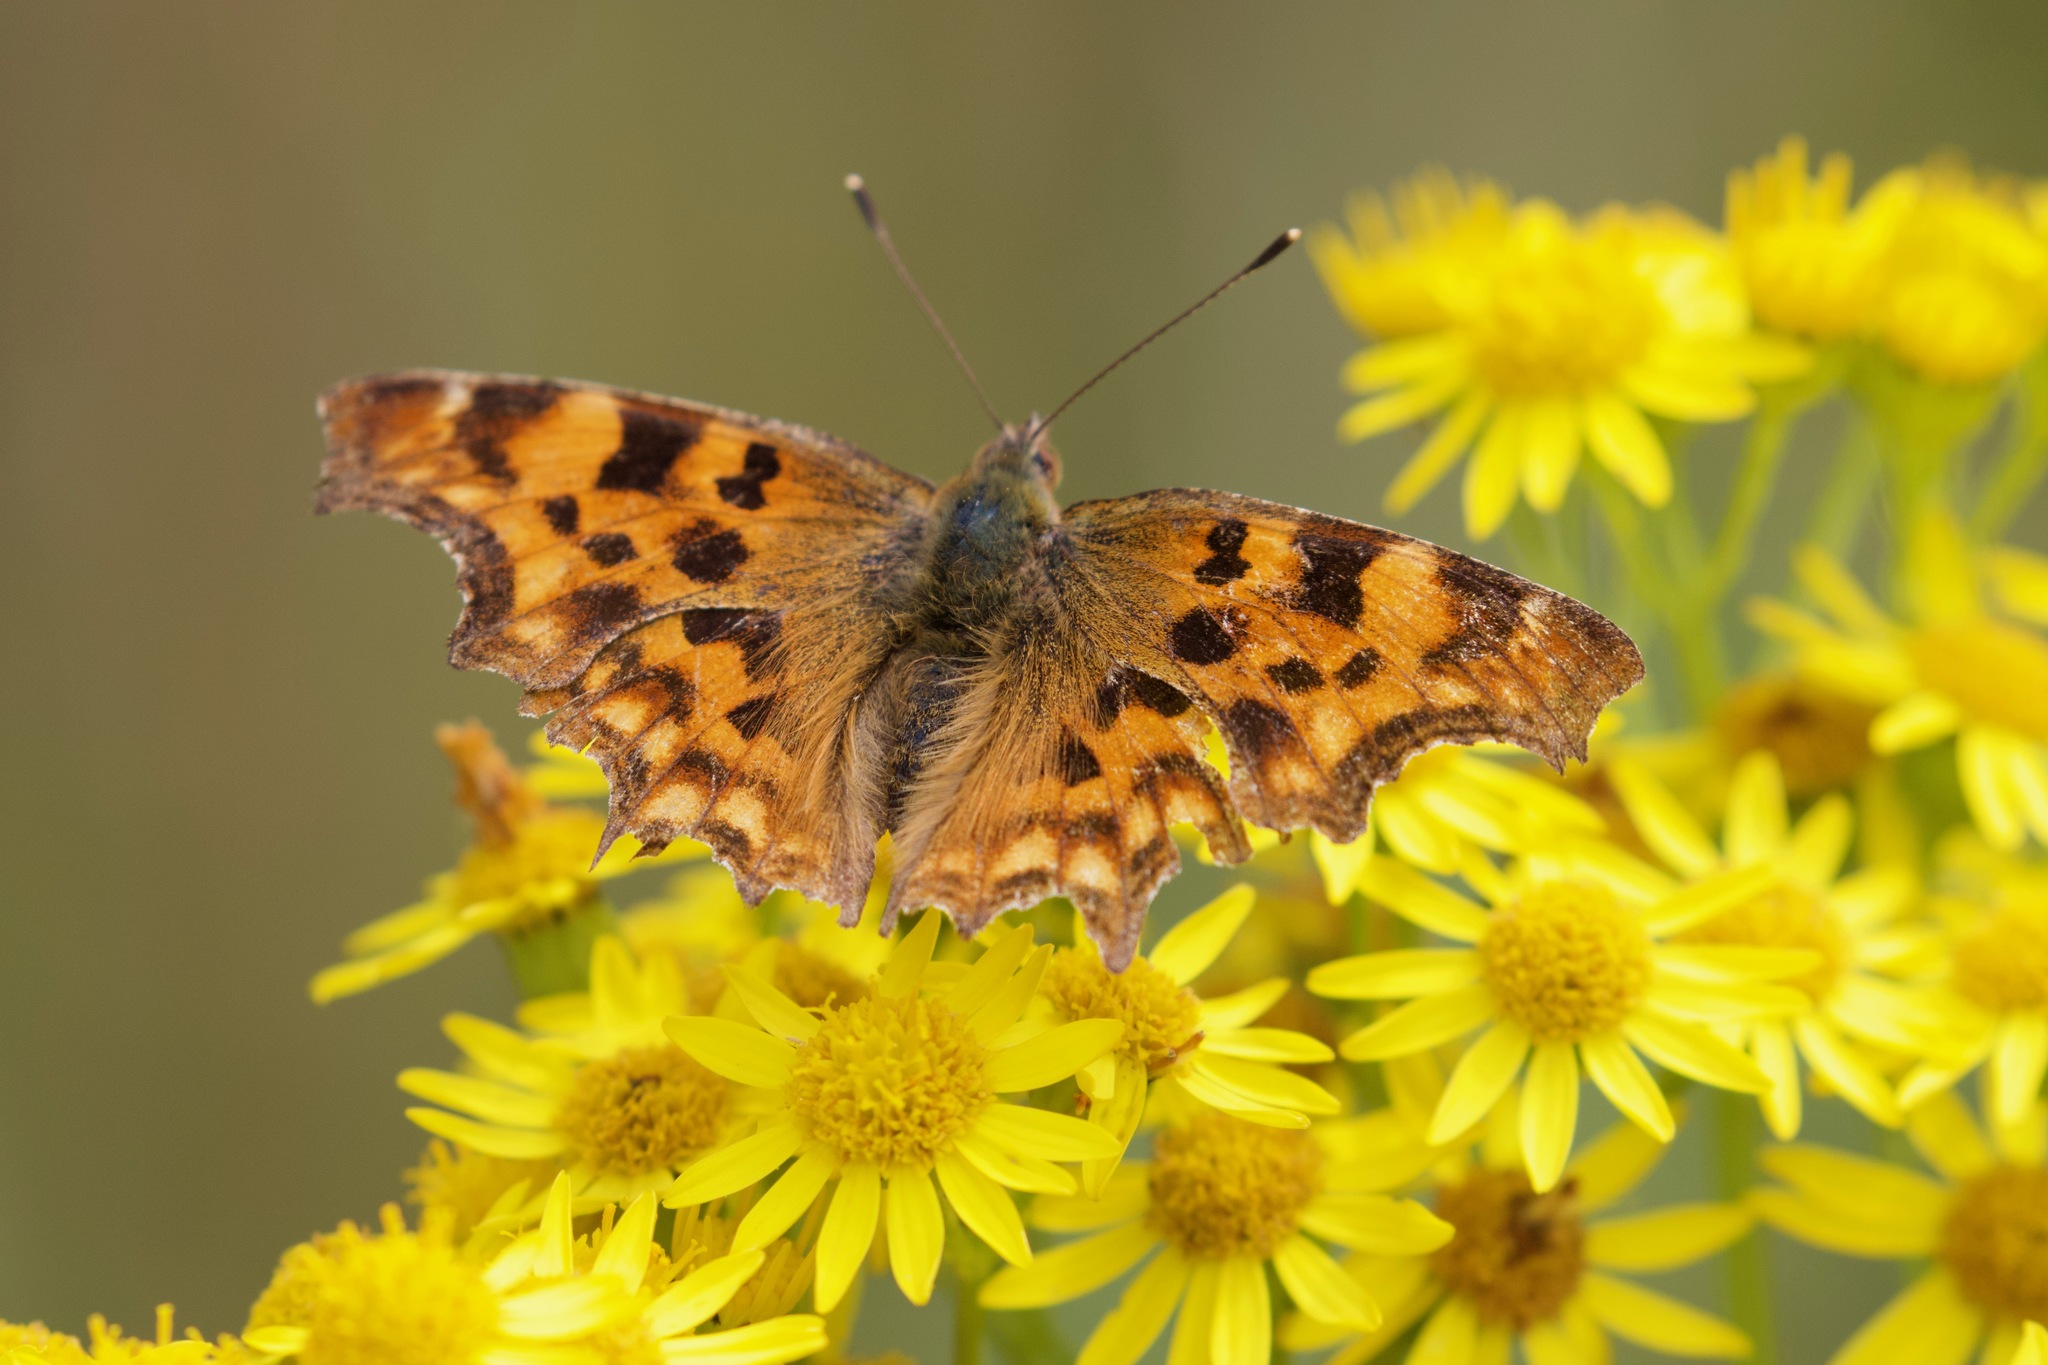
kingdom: Animalia
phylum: Arthropoda
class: Insecta
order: Lepidoptera
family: Nymphalidae
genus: Polygonia
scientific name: Polygonia c-album
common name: Comma
